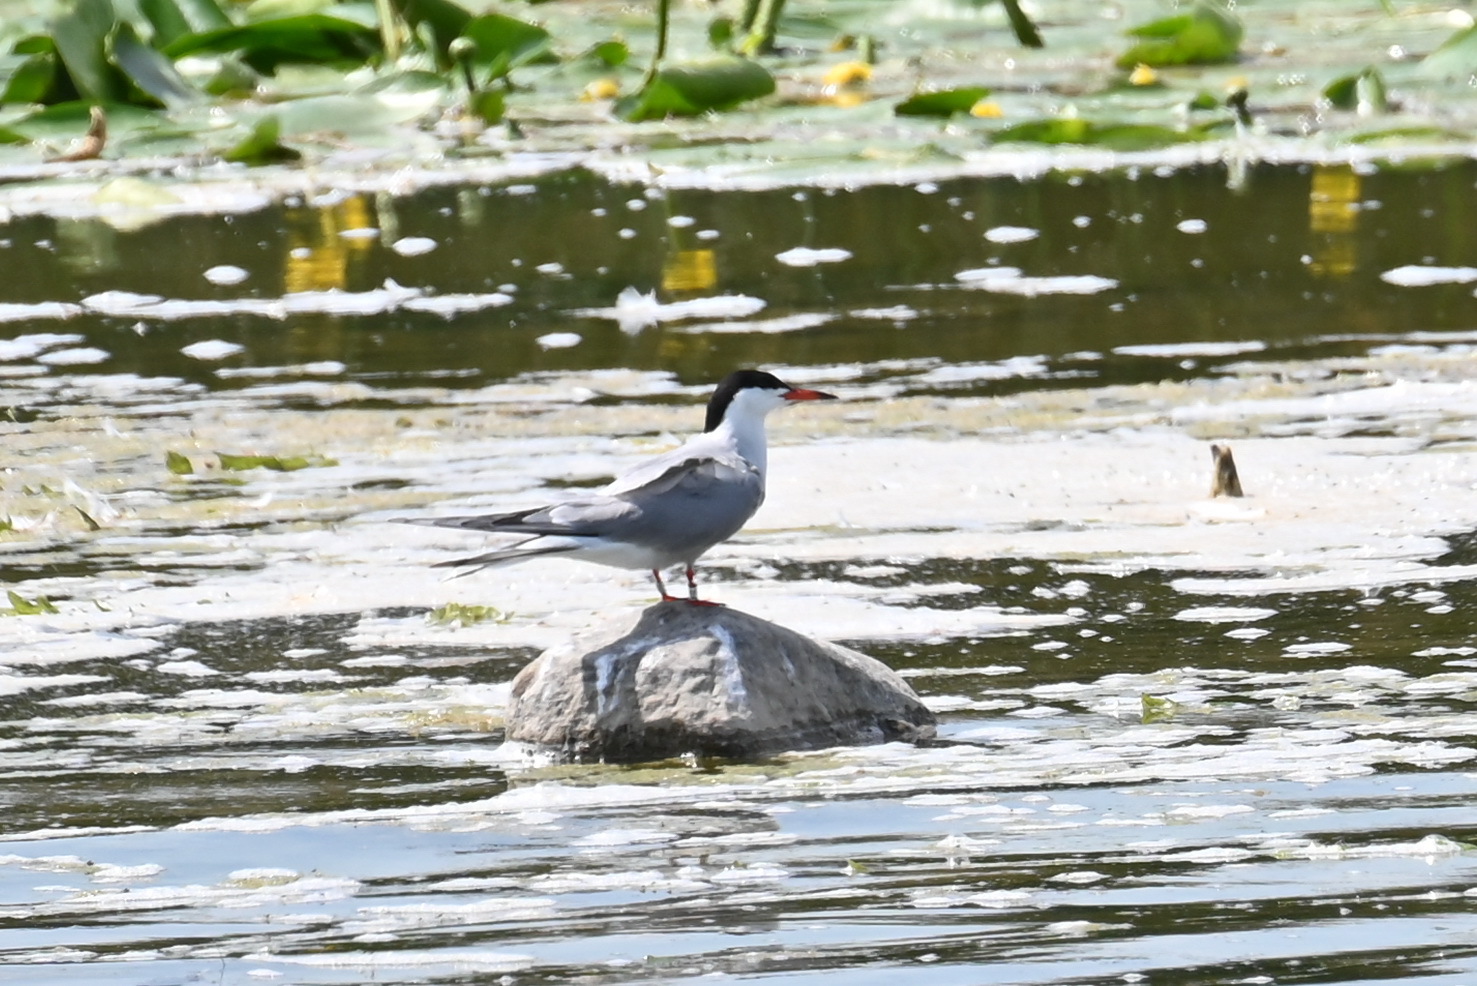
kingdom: Animalia
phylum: Chordata
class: Aves
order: Charadriiformes
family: Laridae
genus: Sterna
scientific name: Sterna hirundo
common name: Common tern
